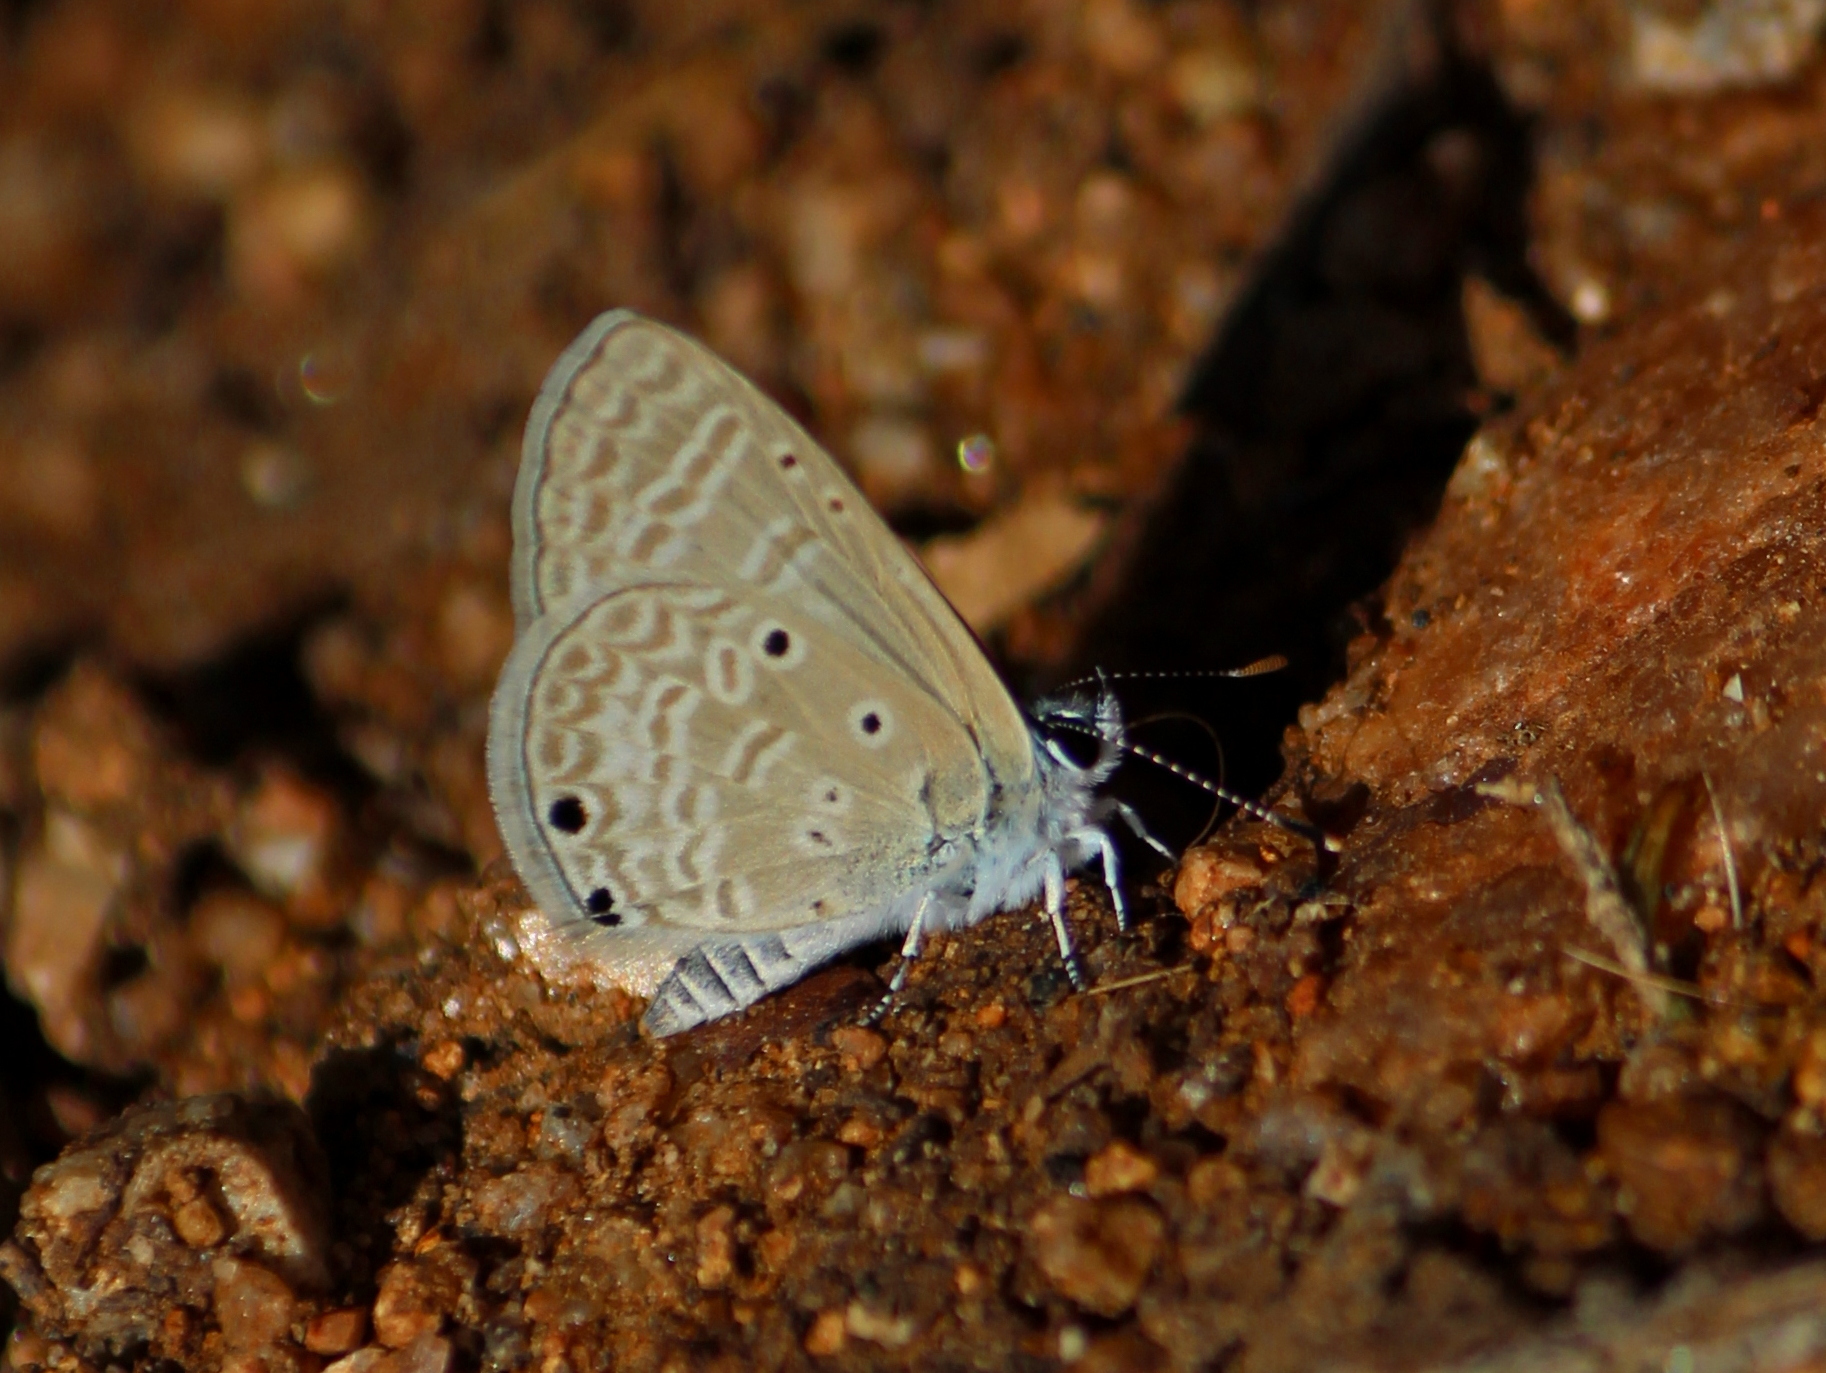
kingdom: Animalia
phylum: Arthropoda
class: Insecta
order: Lepidoptera
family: Lycaenidae
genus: Azanus
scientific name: Azanus ubaldus
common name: Desert babul blue
